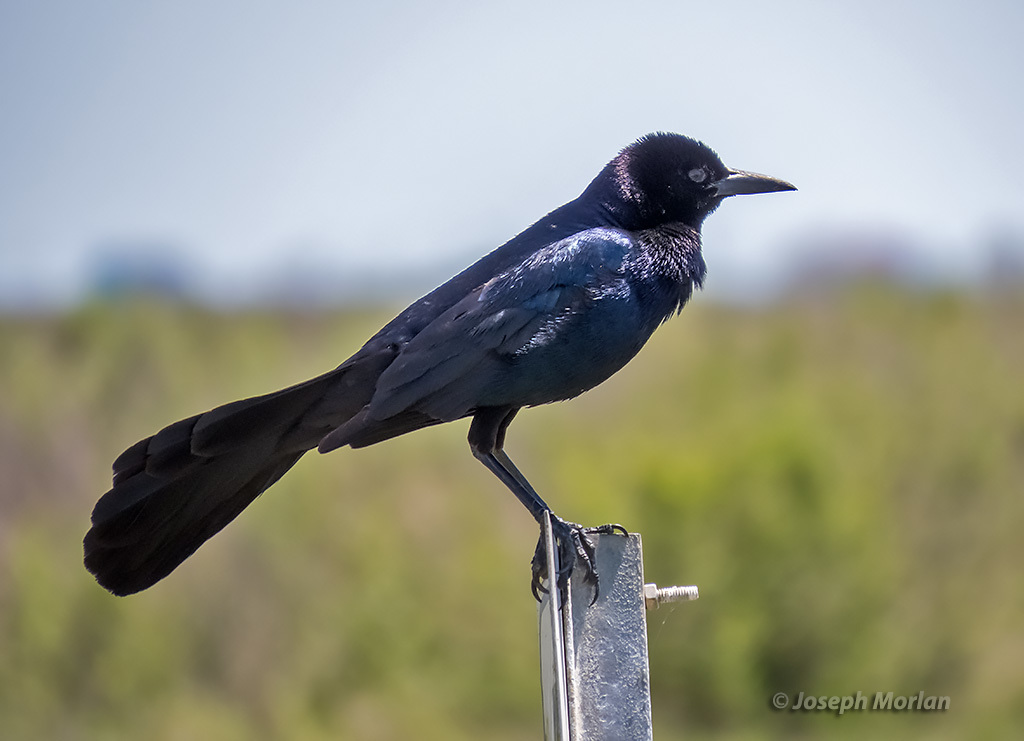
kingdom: Animalia
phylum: Chordata
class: Aves
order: Passeriformes
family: Icteridae
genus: Quiscalus
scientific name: Quiscalus major
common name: Boat-tailed grackle
